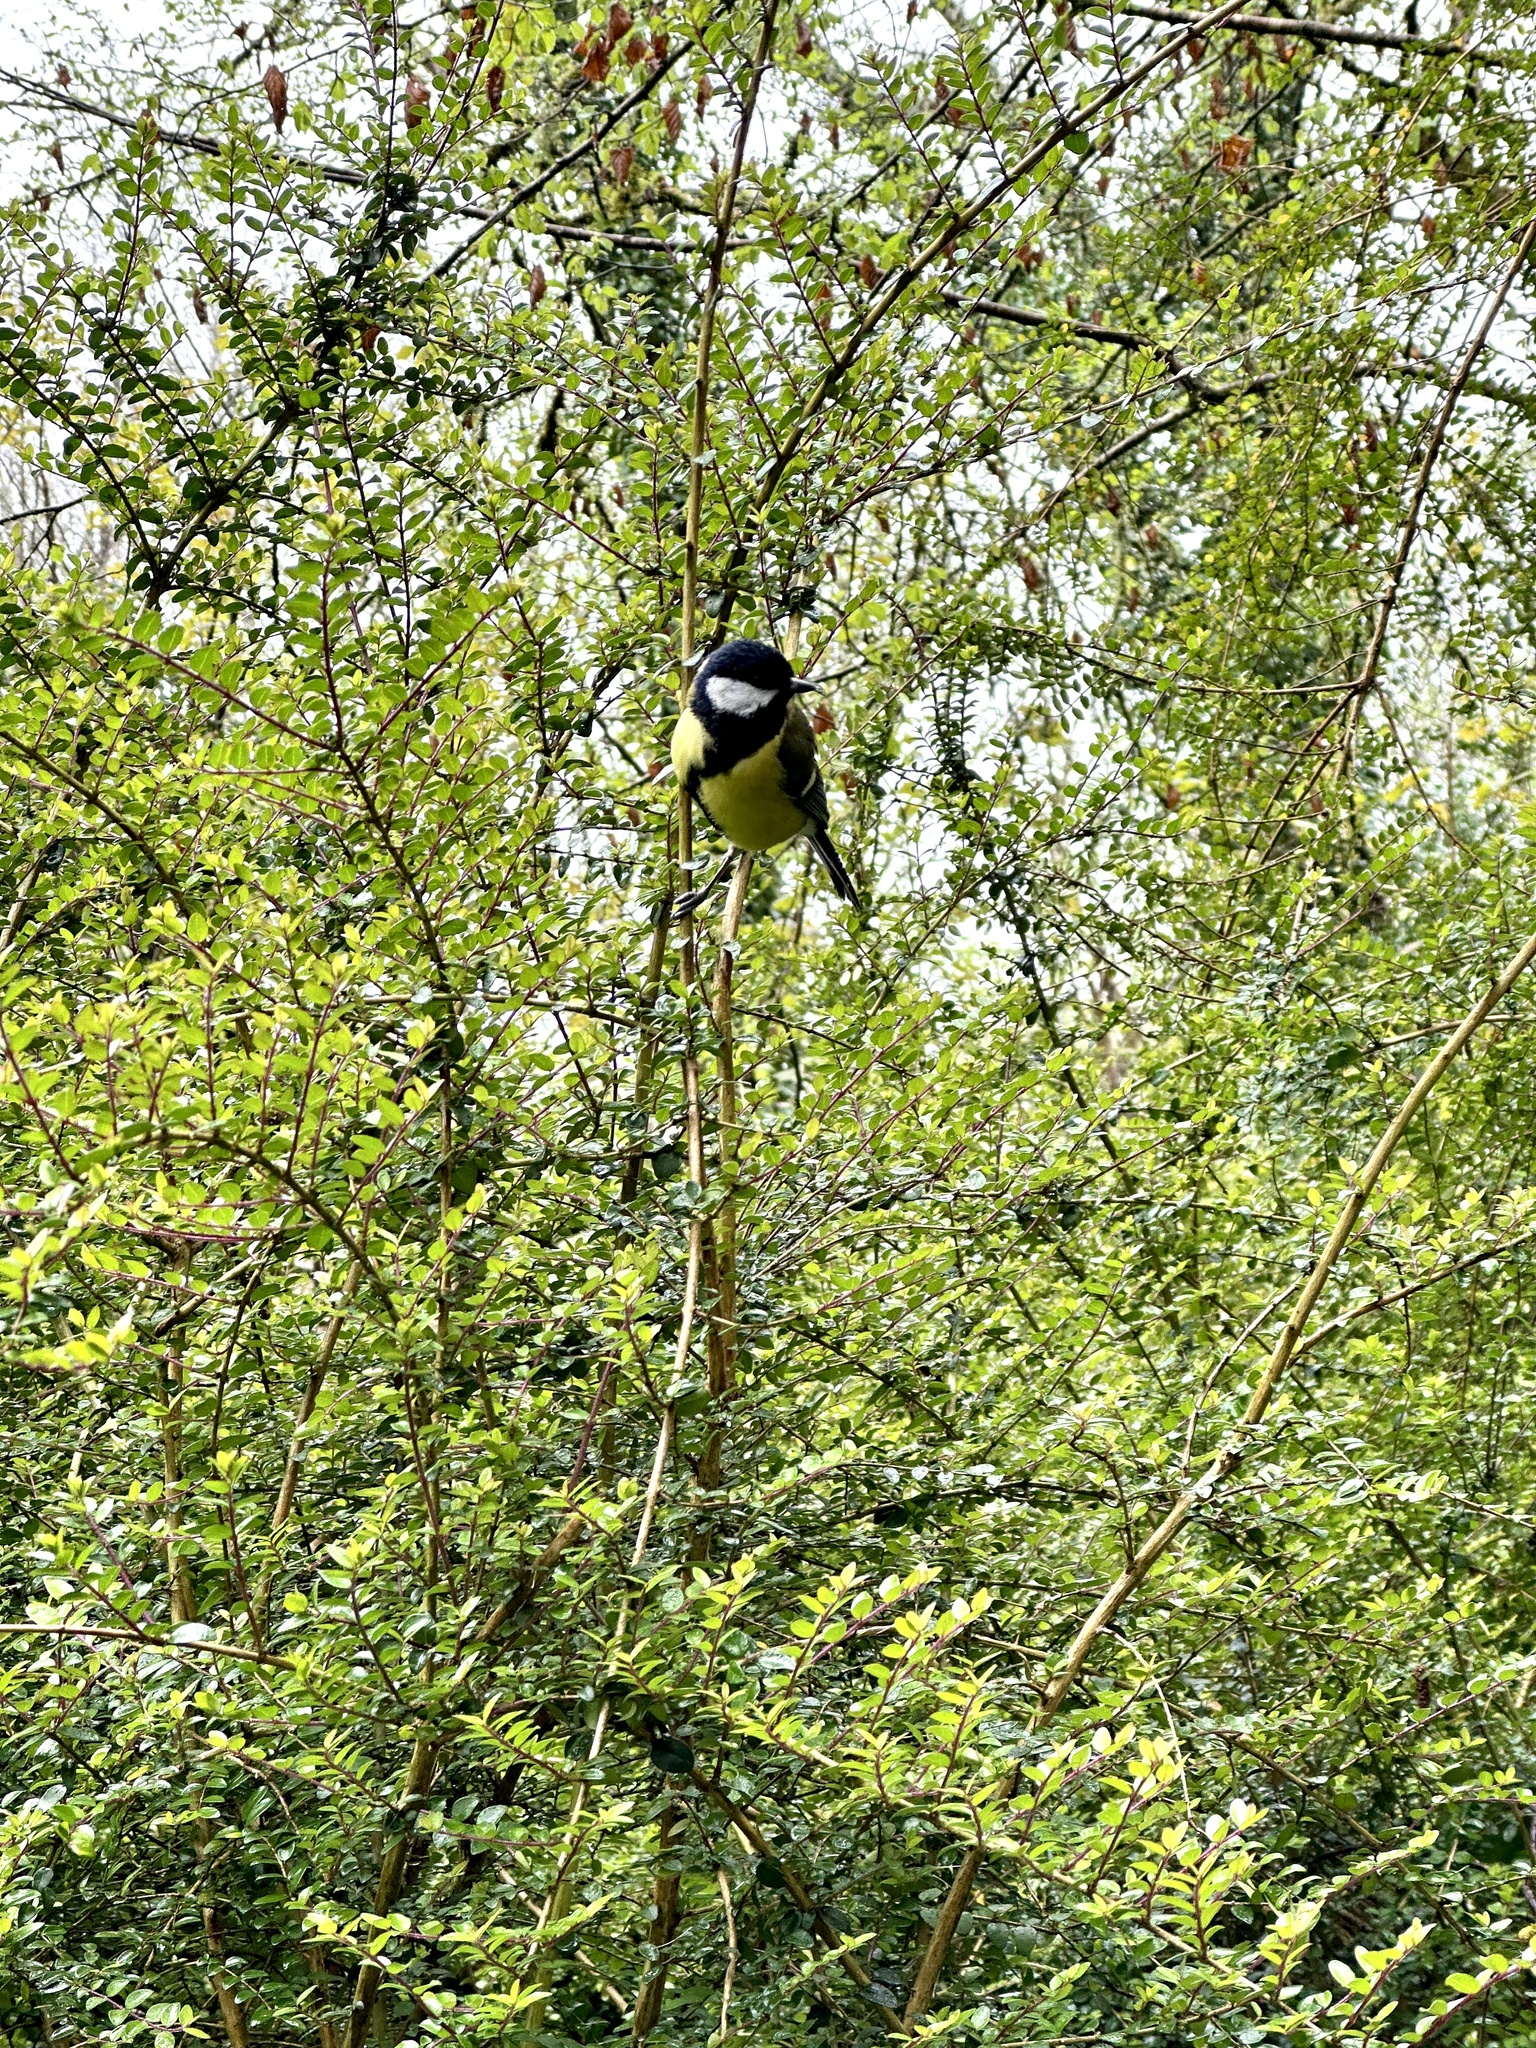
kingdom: Animalia
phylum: Chordata
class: Aves
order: Passeriformes
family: Paridae
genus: Parus
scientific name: Parus major
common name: Great tit
